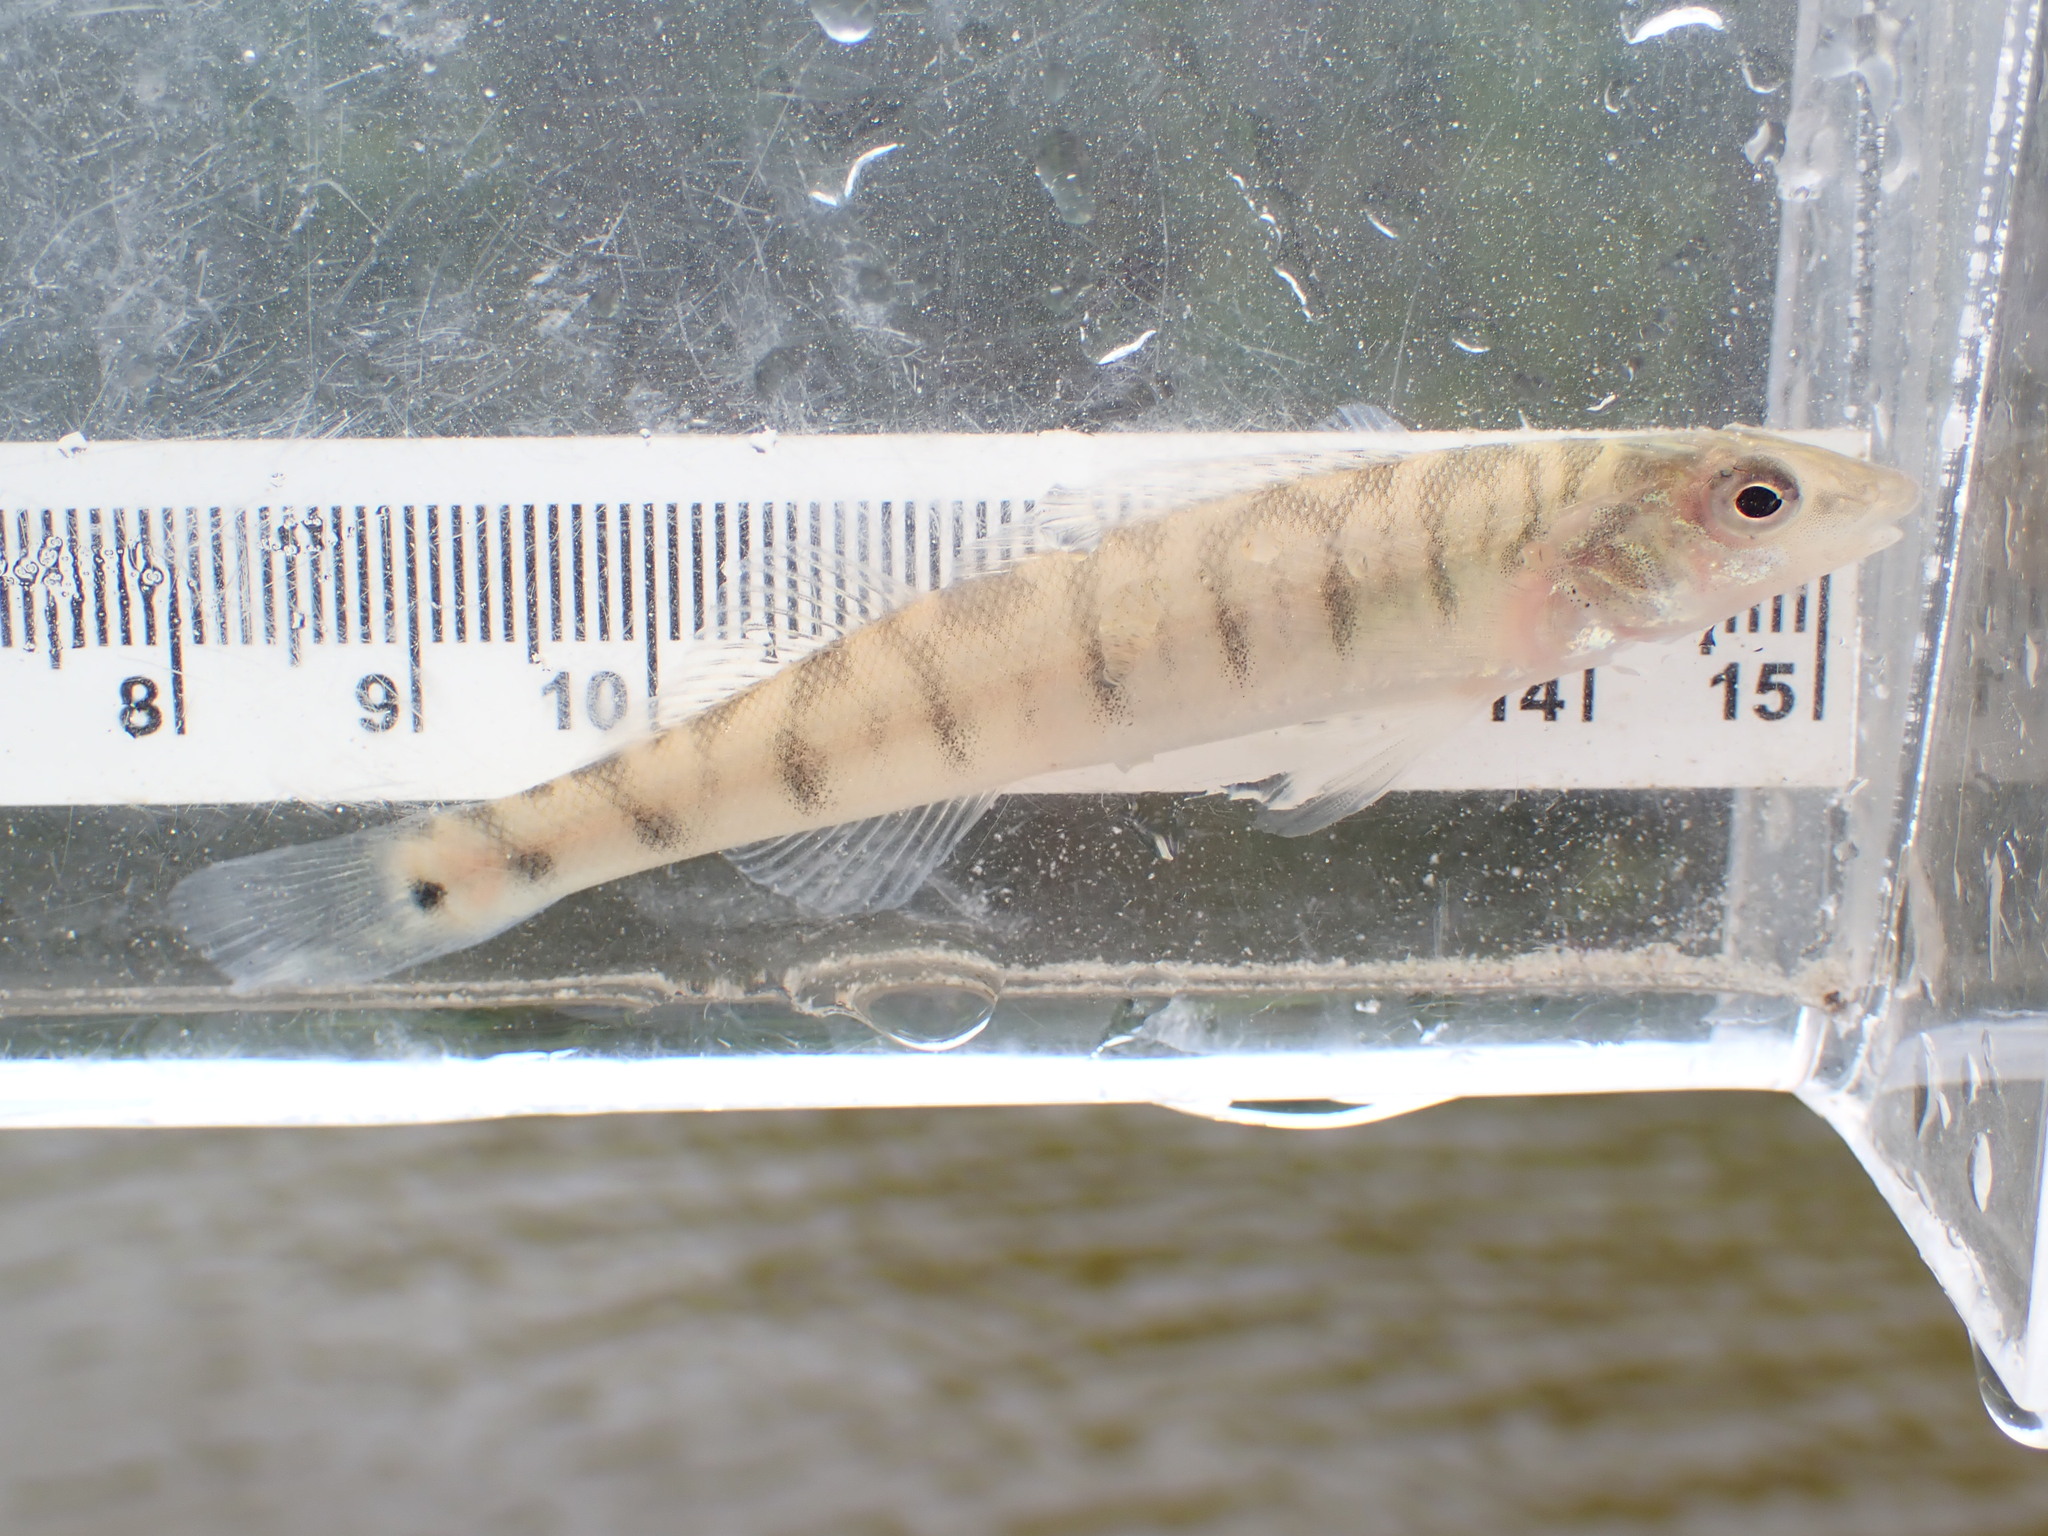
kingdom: Animalia
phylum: Chordata
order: Perciformes
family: Percidae
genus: Percina
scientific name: Percina caprodes
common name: Logperch
